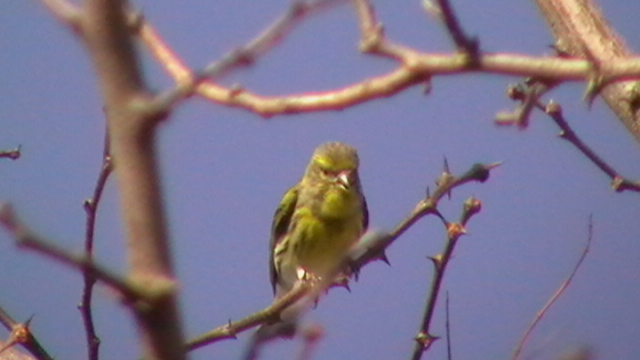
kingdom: Animalia
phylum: Chordata
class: Aves
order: Passeriformes
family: Fringillidae
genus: Serinus
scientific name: Serinus serinus
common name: European serin
